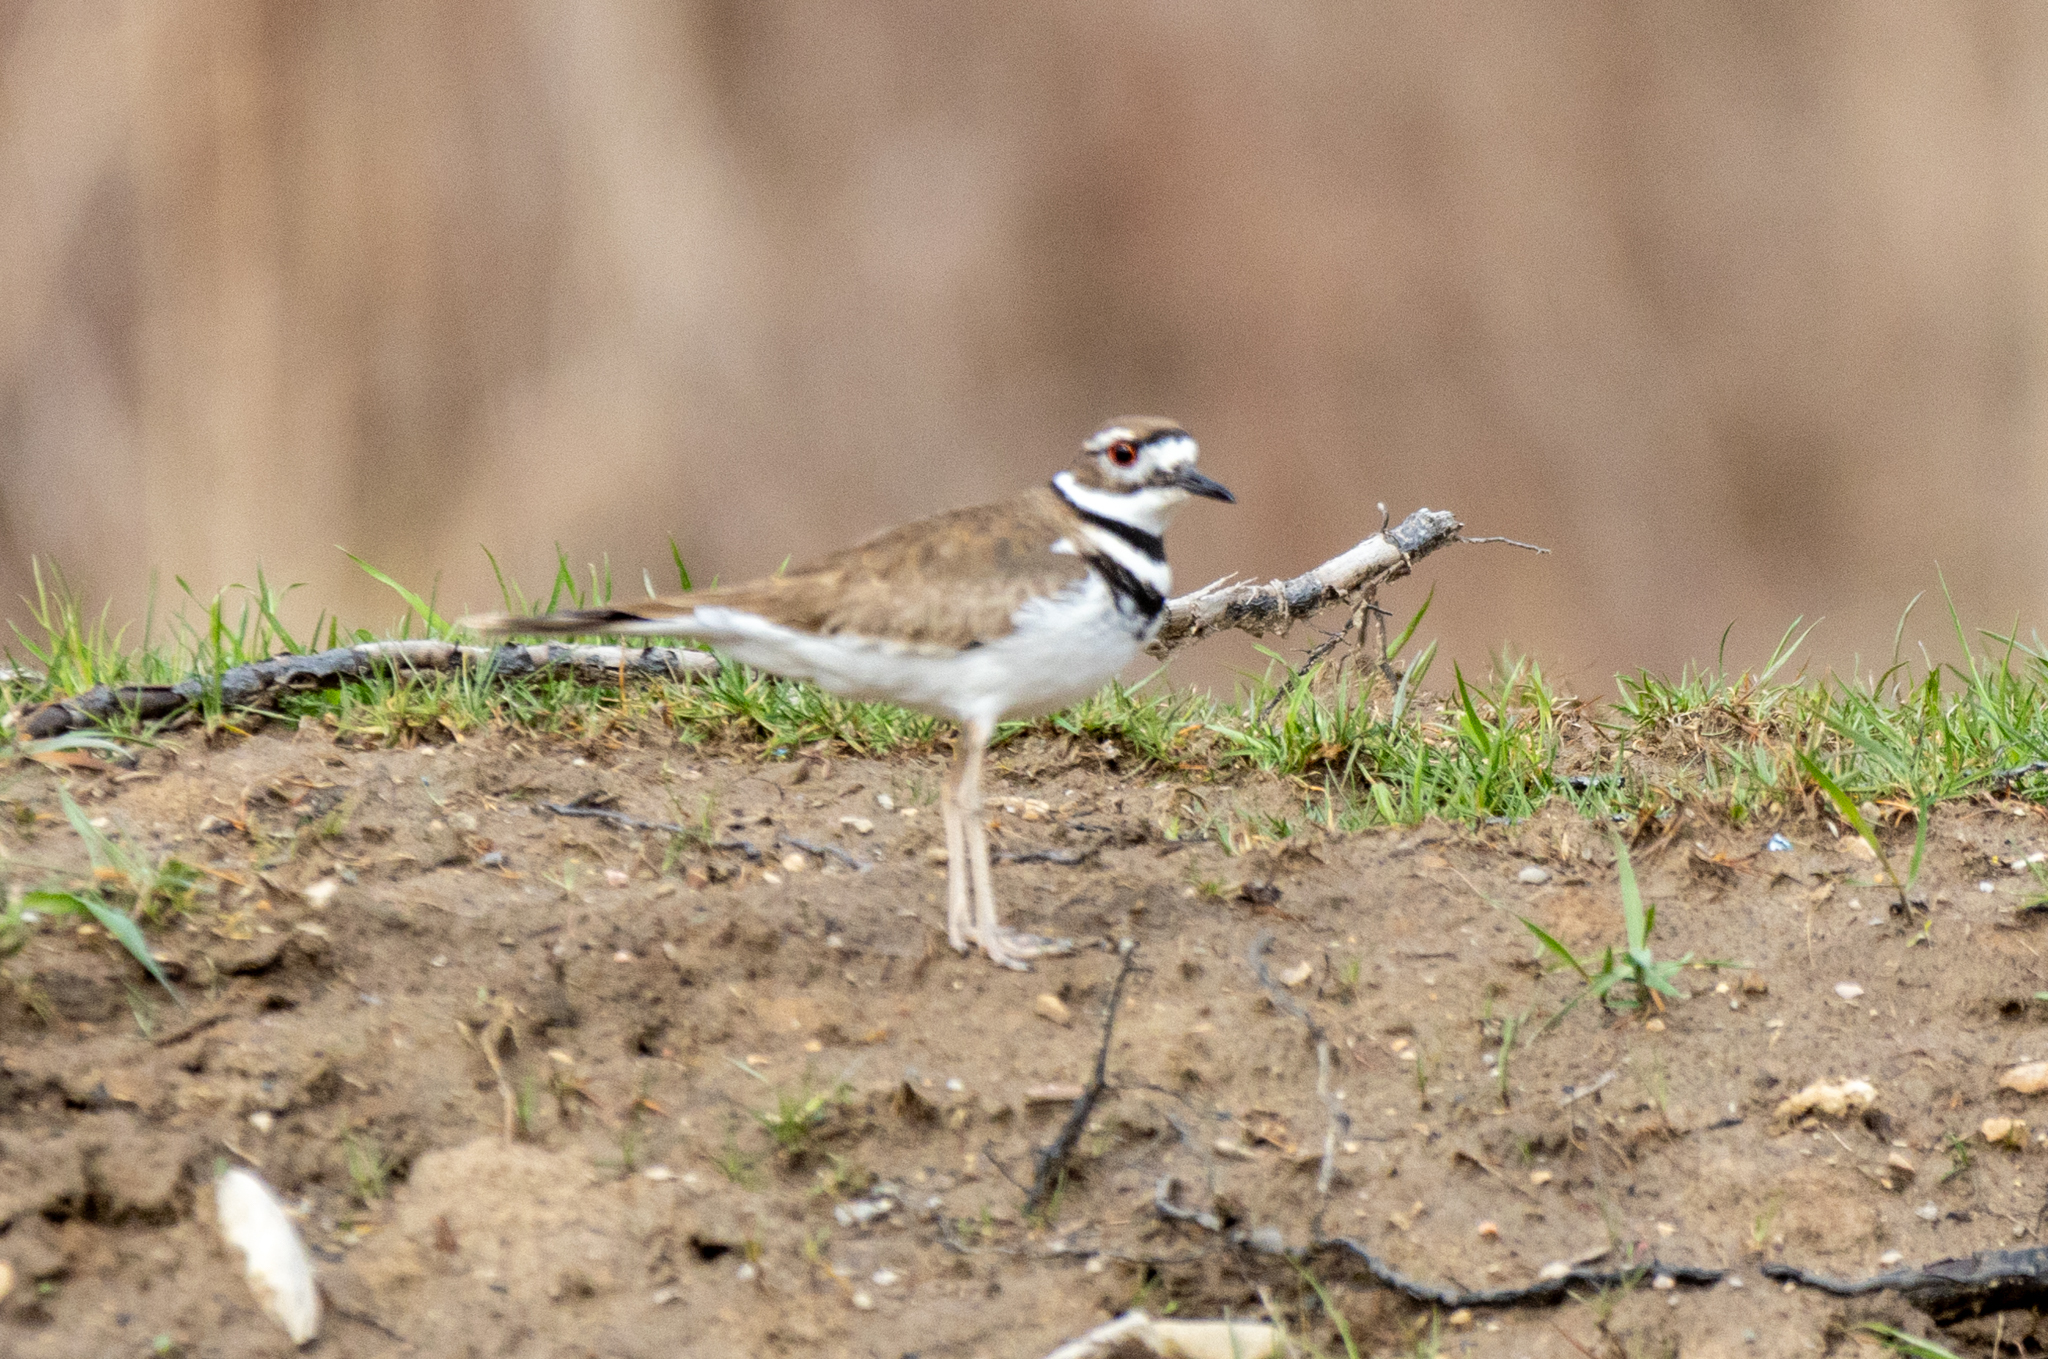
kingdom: Animalia
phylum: Chordata
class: Aves
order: Charadriiformes
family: Charadriidae
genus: Charadrius
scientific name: Charadrius vociferus
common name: Killdeer
